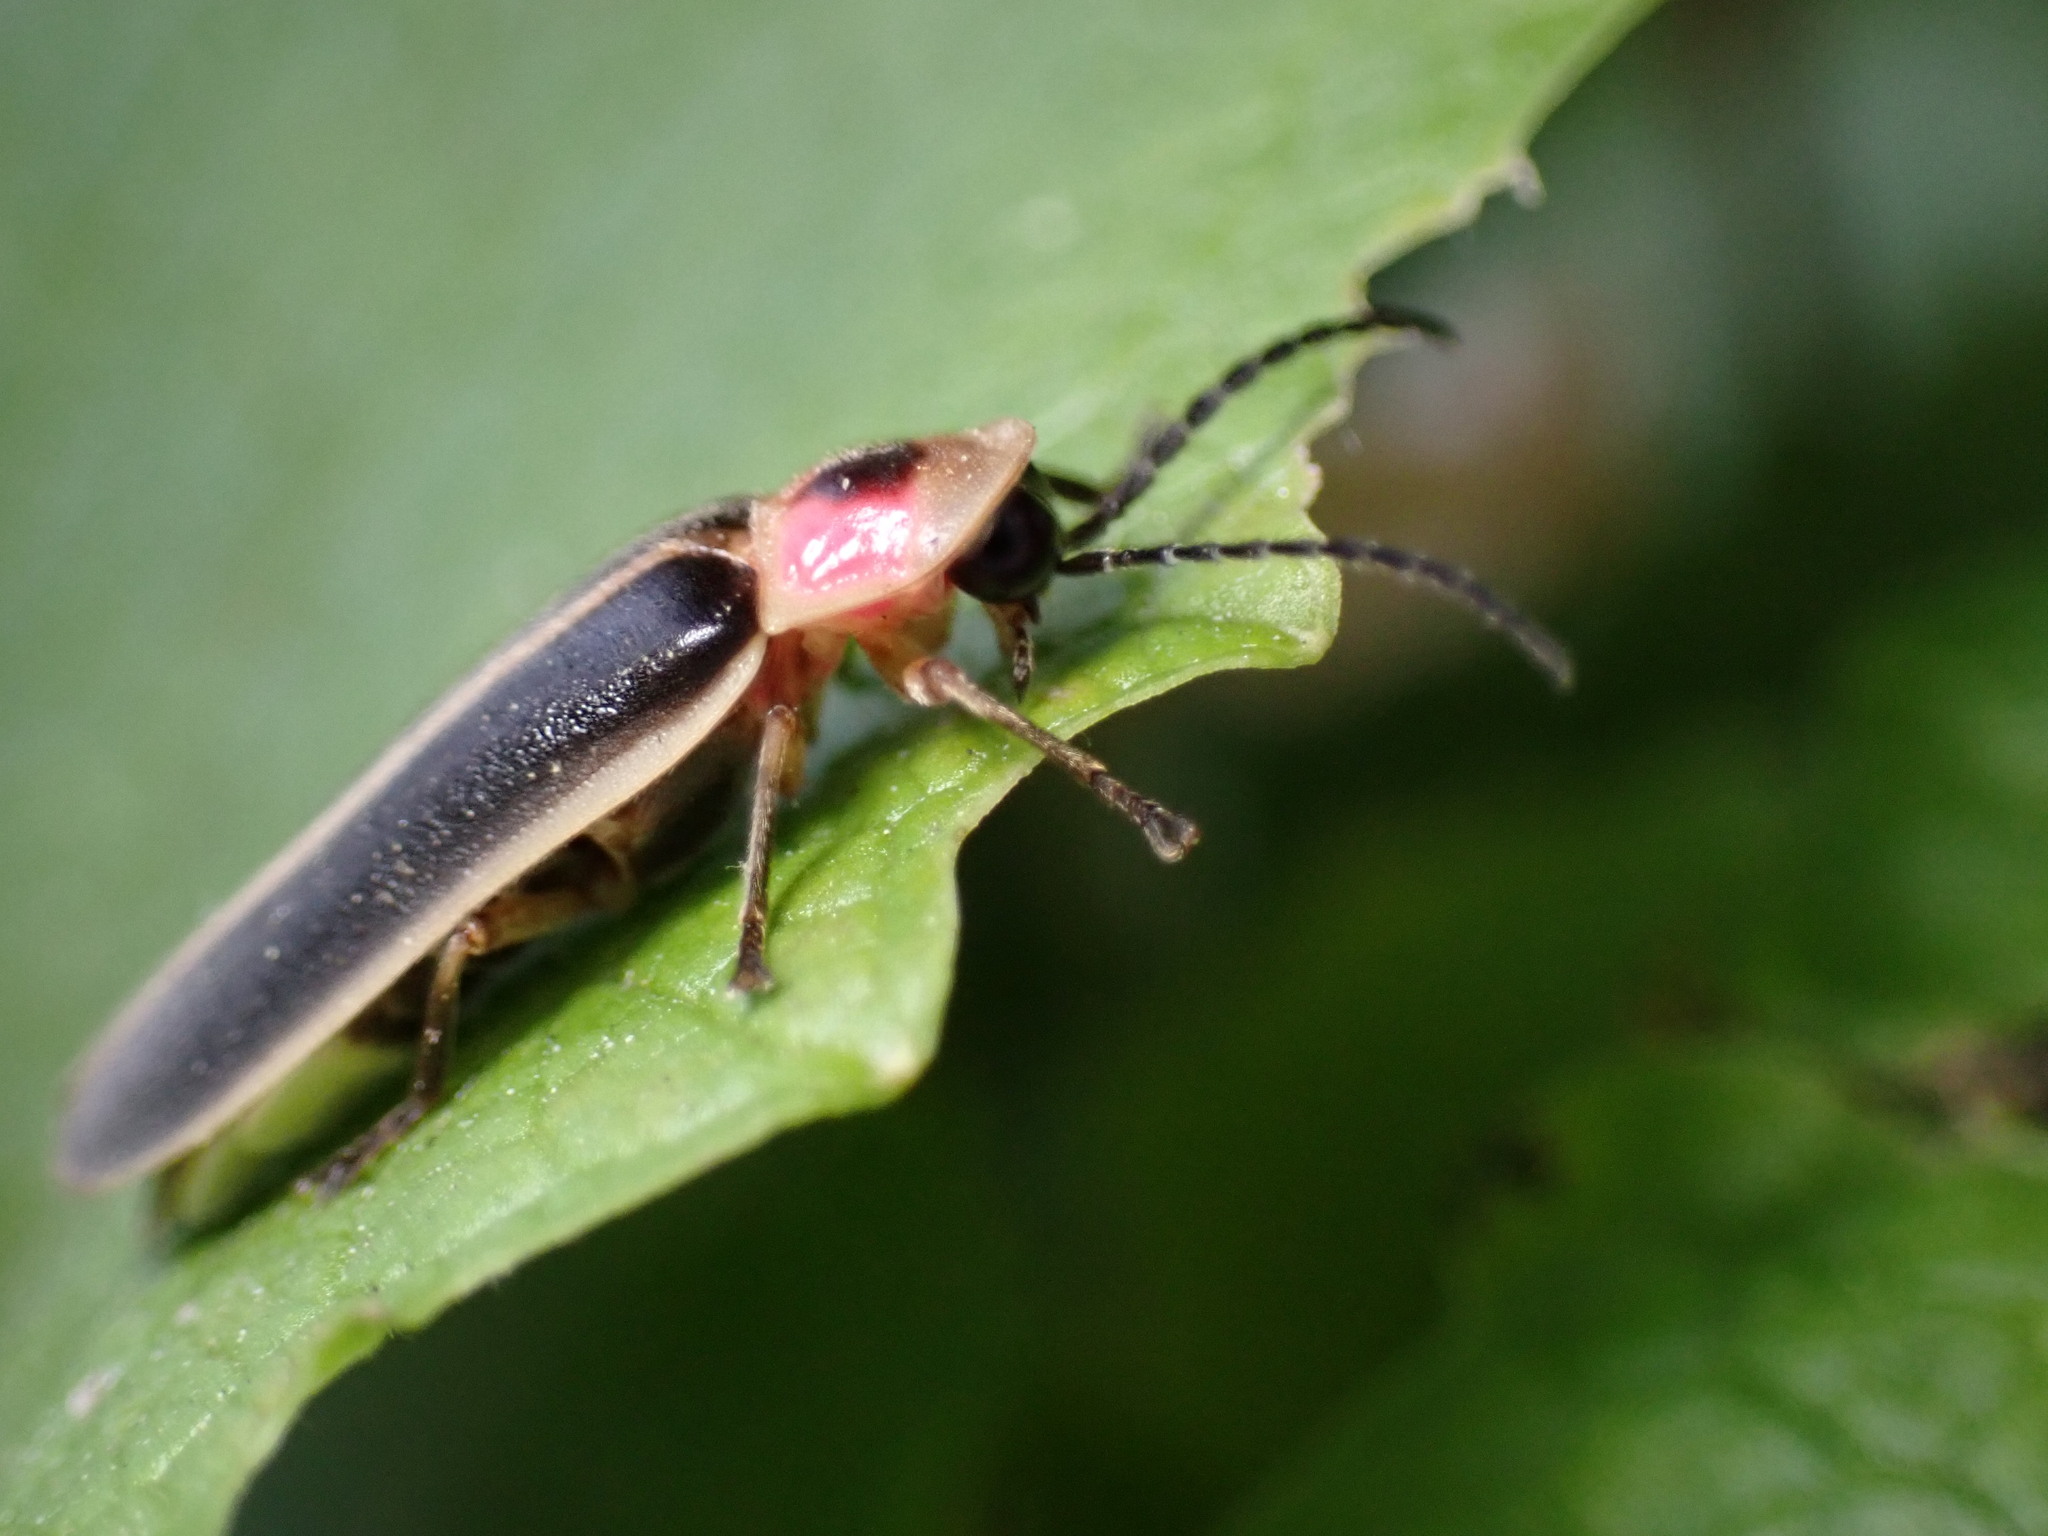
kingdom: Animalia
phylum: Arthropoda
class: Insecta
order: Coleoptera
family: Lampyridae
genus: Photinus
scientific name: Photinus pyralis
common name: Big dipper firefly
